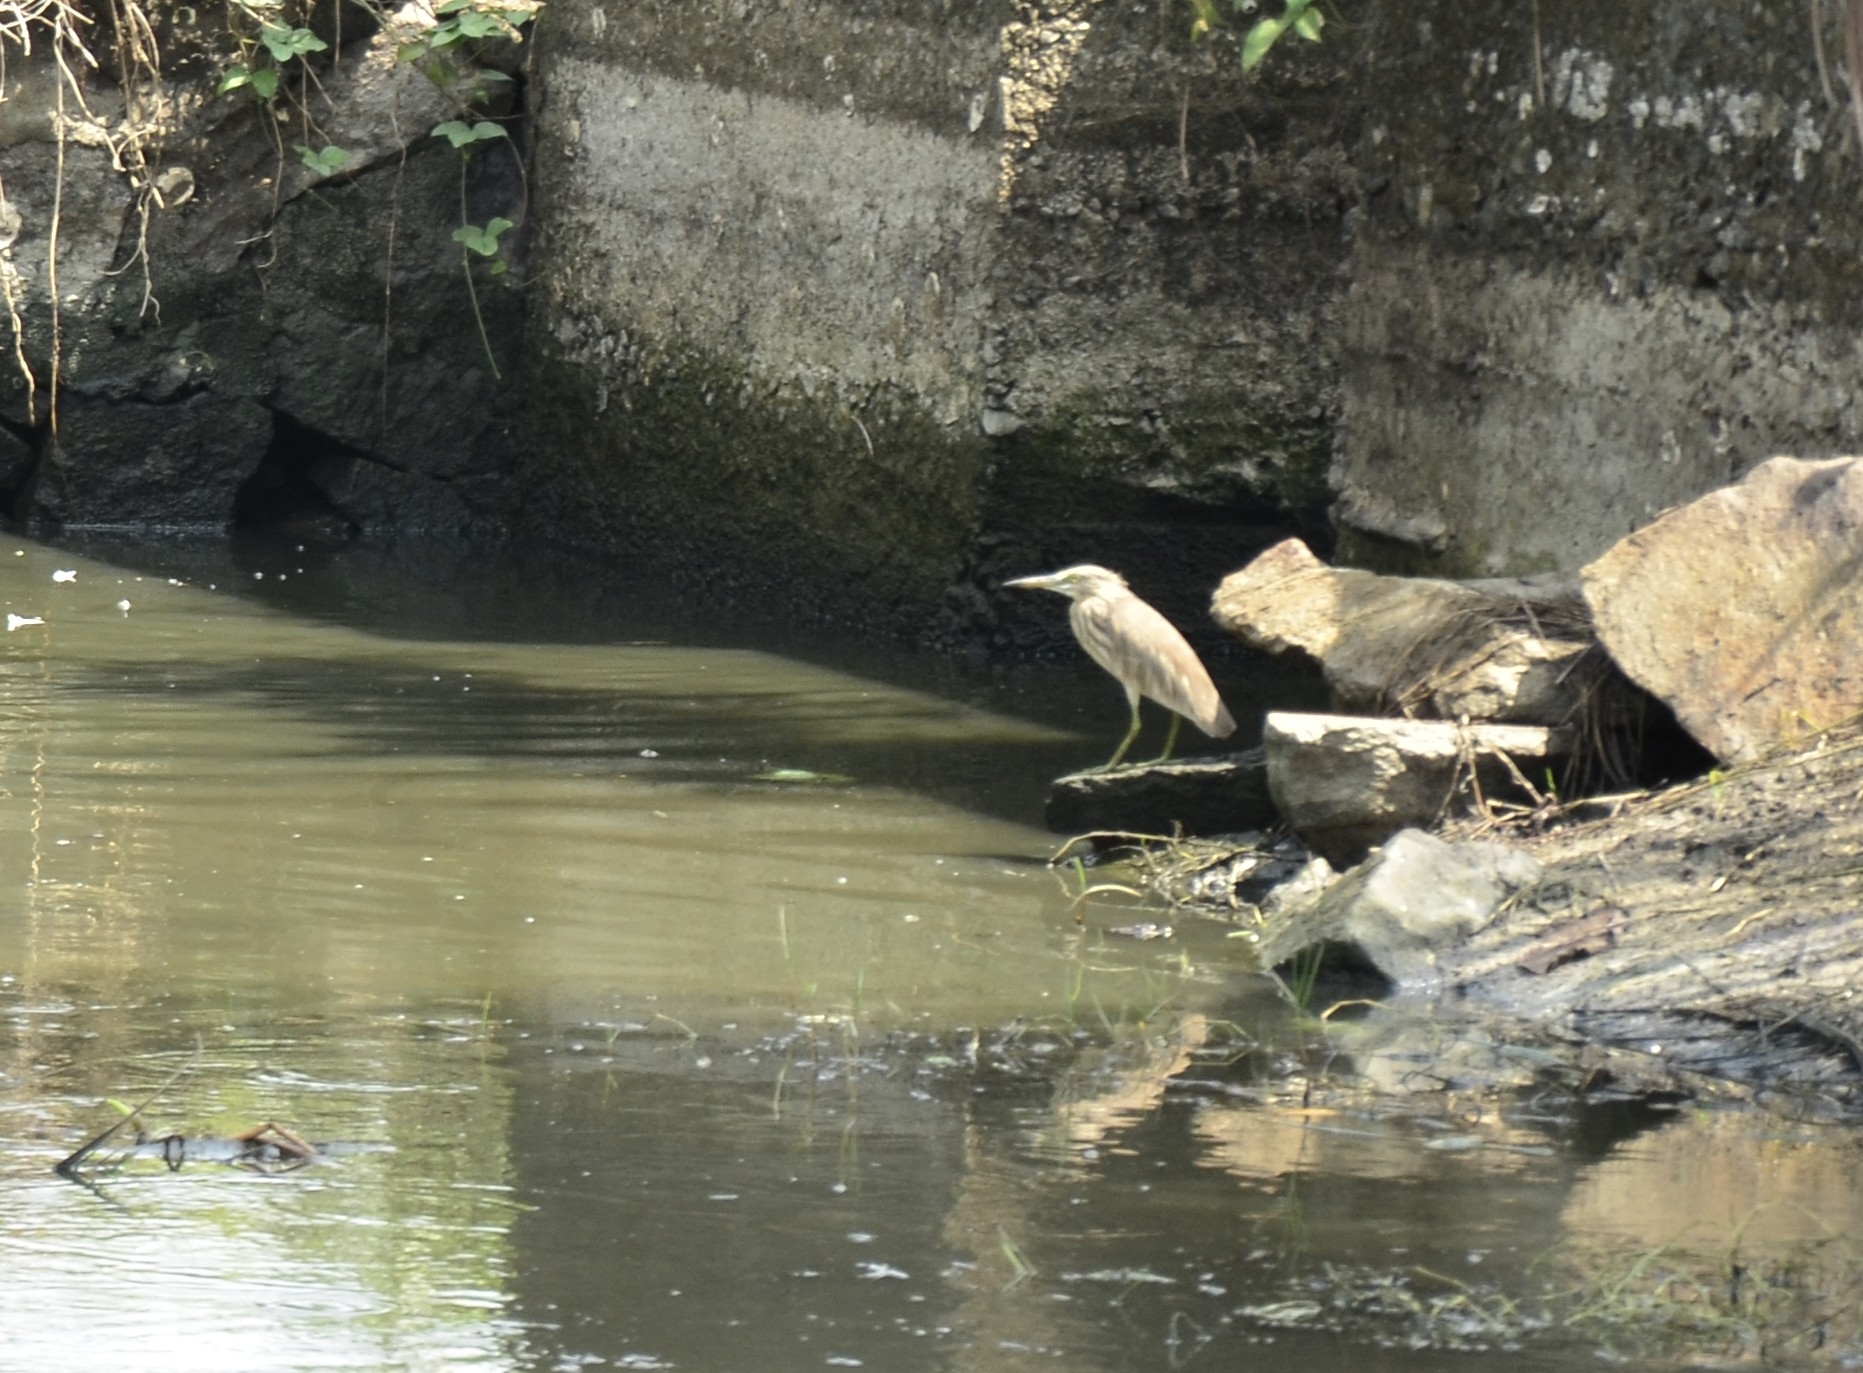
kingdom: Animalia
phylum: Chordata
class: Aves
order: Pelecaniformes
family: Ardeidae
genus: Ardeola
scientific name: Ardeola grayii
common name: Indian pond heron
